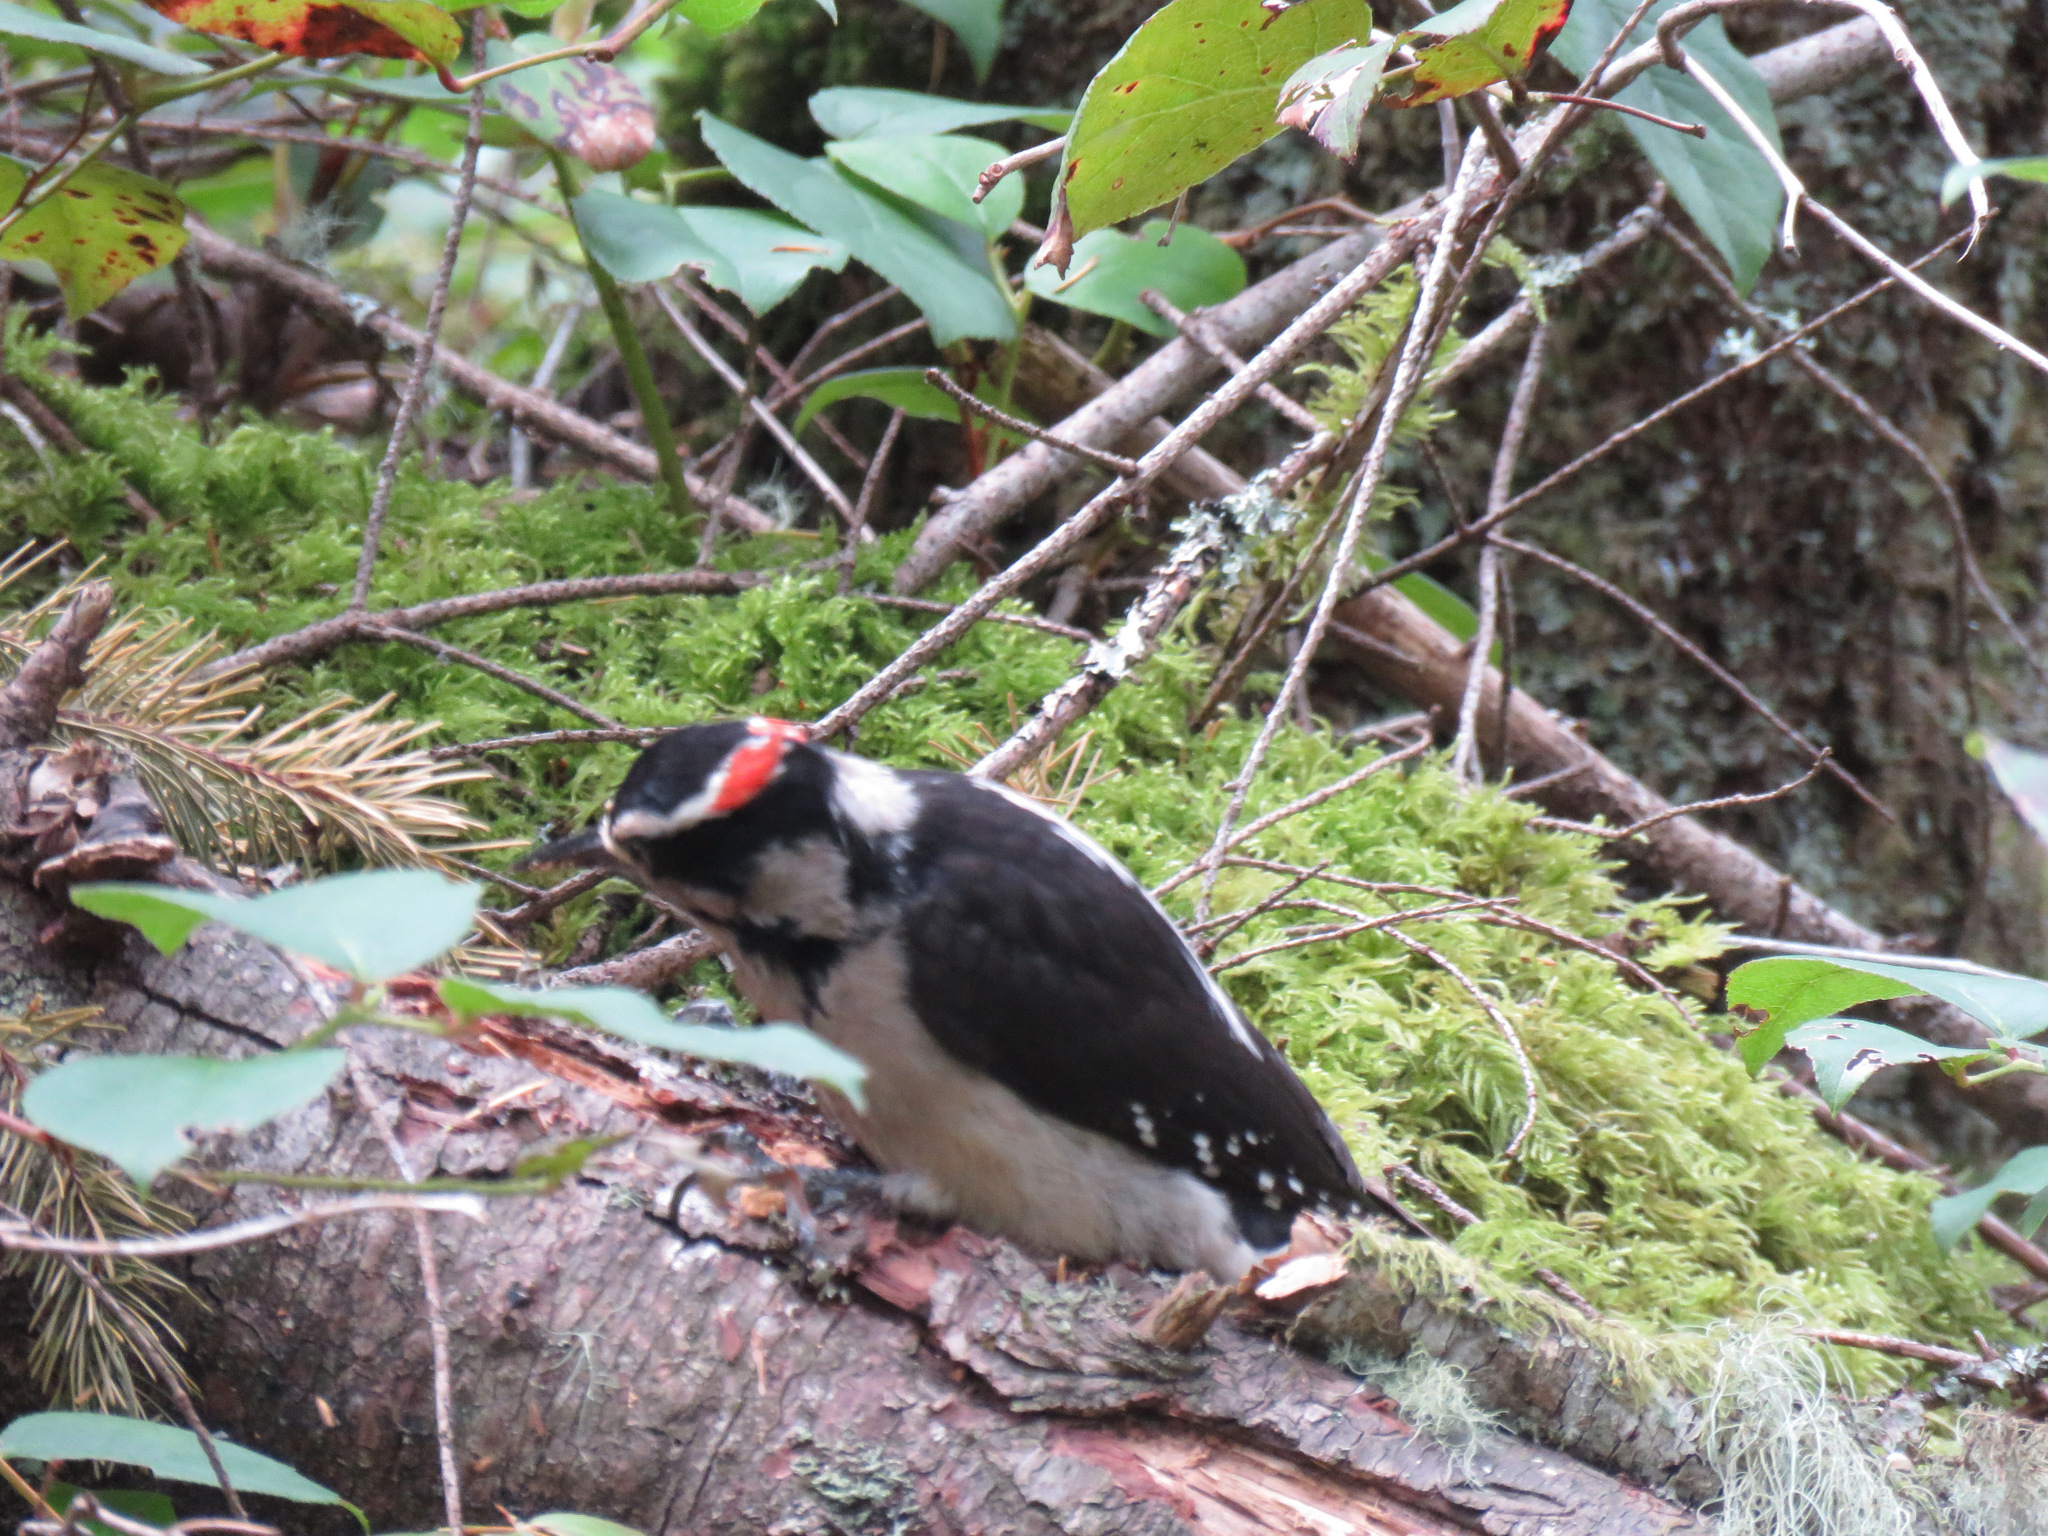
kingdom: Animalia
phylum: Chordata
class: Aves
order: Piciformes
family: Picidae
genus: Leuconotopicus
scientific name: Leuconotopicus villosus
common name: Hairy woodpecker
